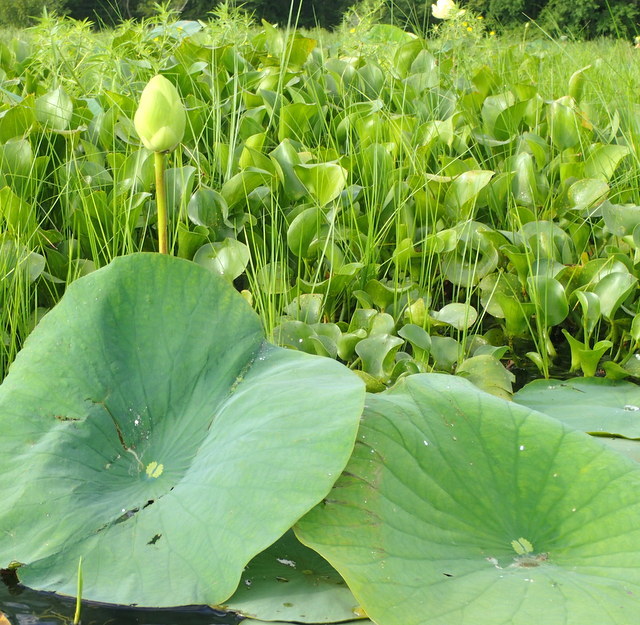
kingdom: Plantae
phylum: Tracheophyta
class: Magnoliopsida
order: Proteales
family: Nelumbonaceae
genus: Nelumbo
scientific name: Nelumbo lutea
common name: American lotus
